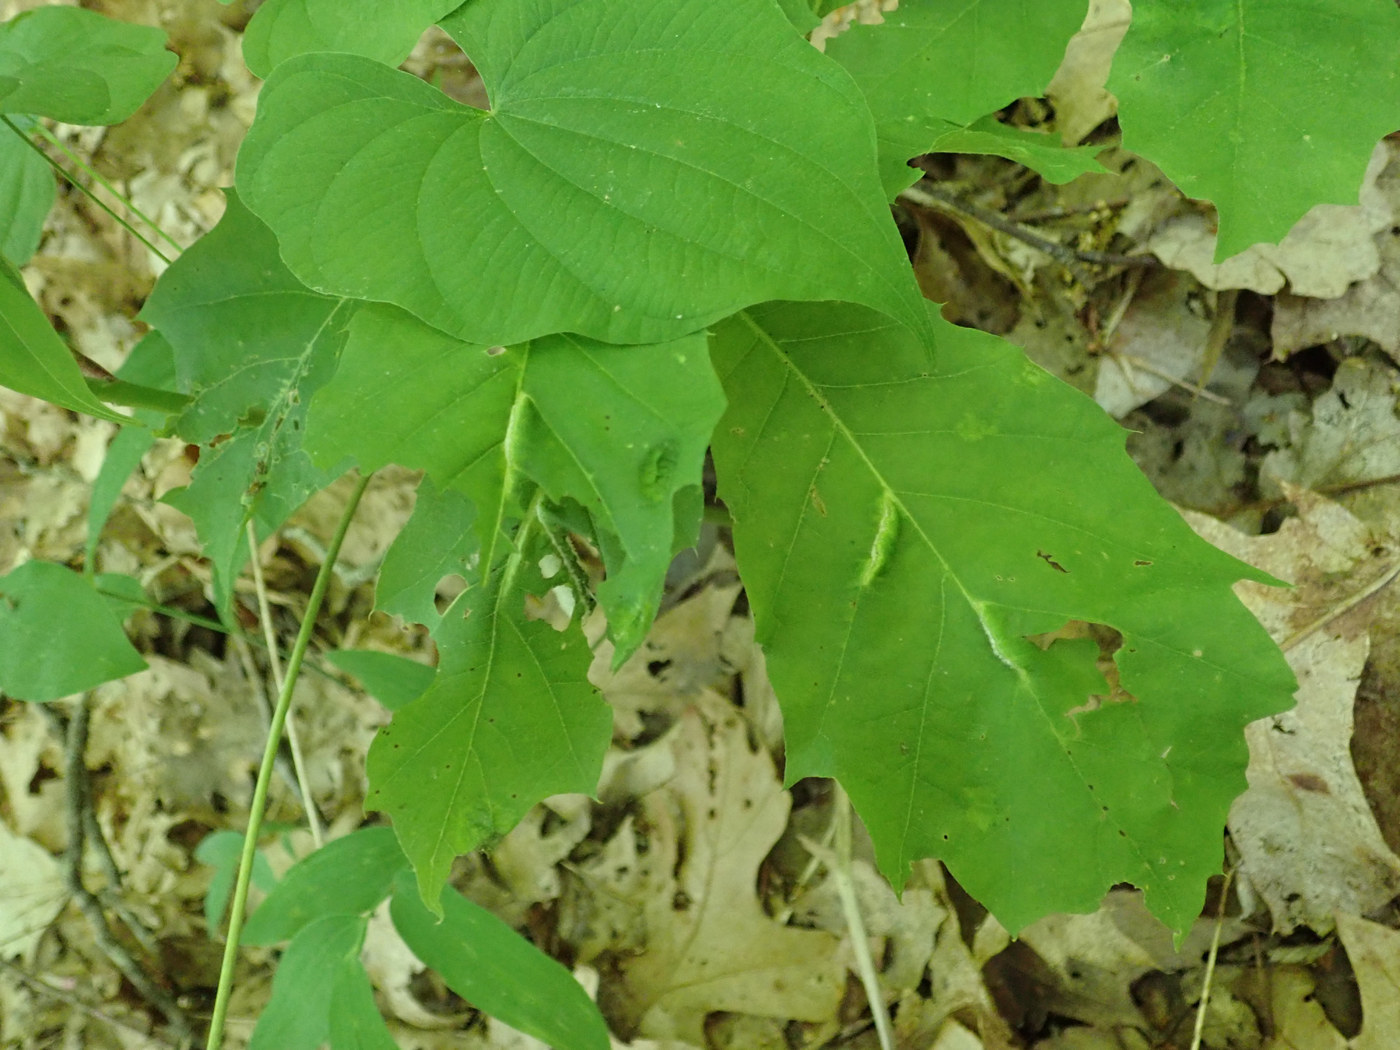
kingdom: Animalia
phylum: Arthropoda
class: Insecta
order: Diptera
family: Cecidomyiidae
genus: Macrodiplosis
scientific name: Macrodiplosis niveipila
